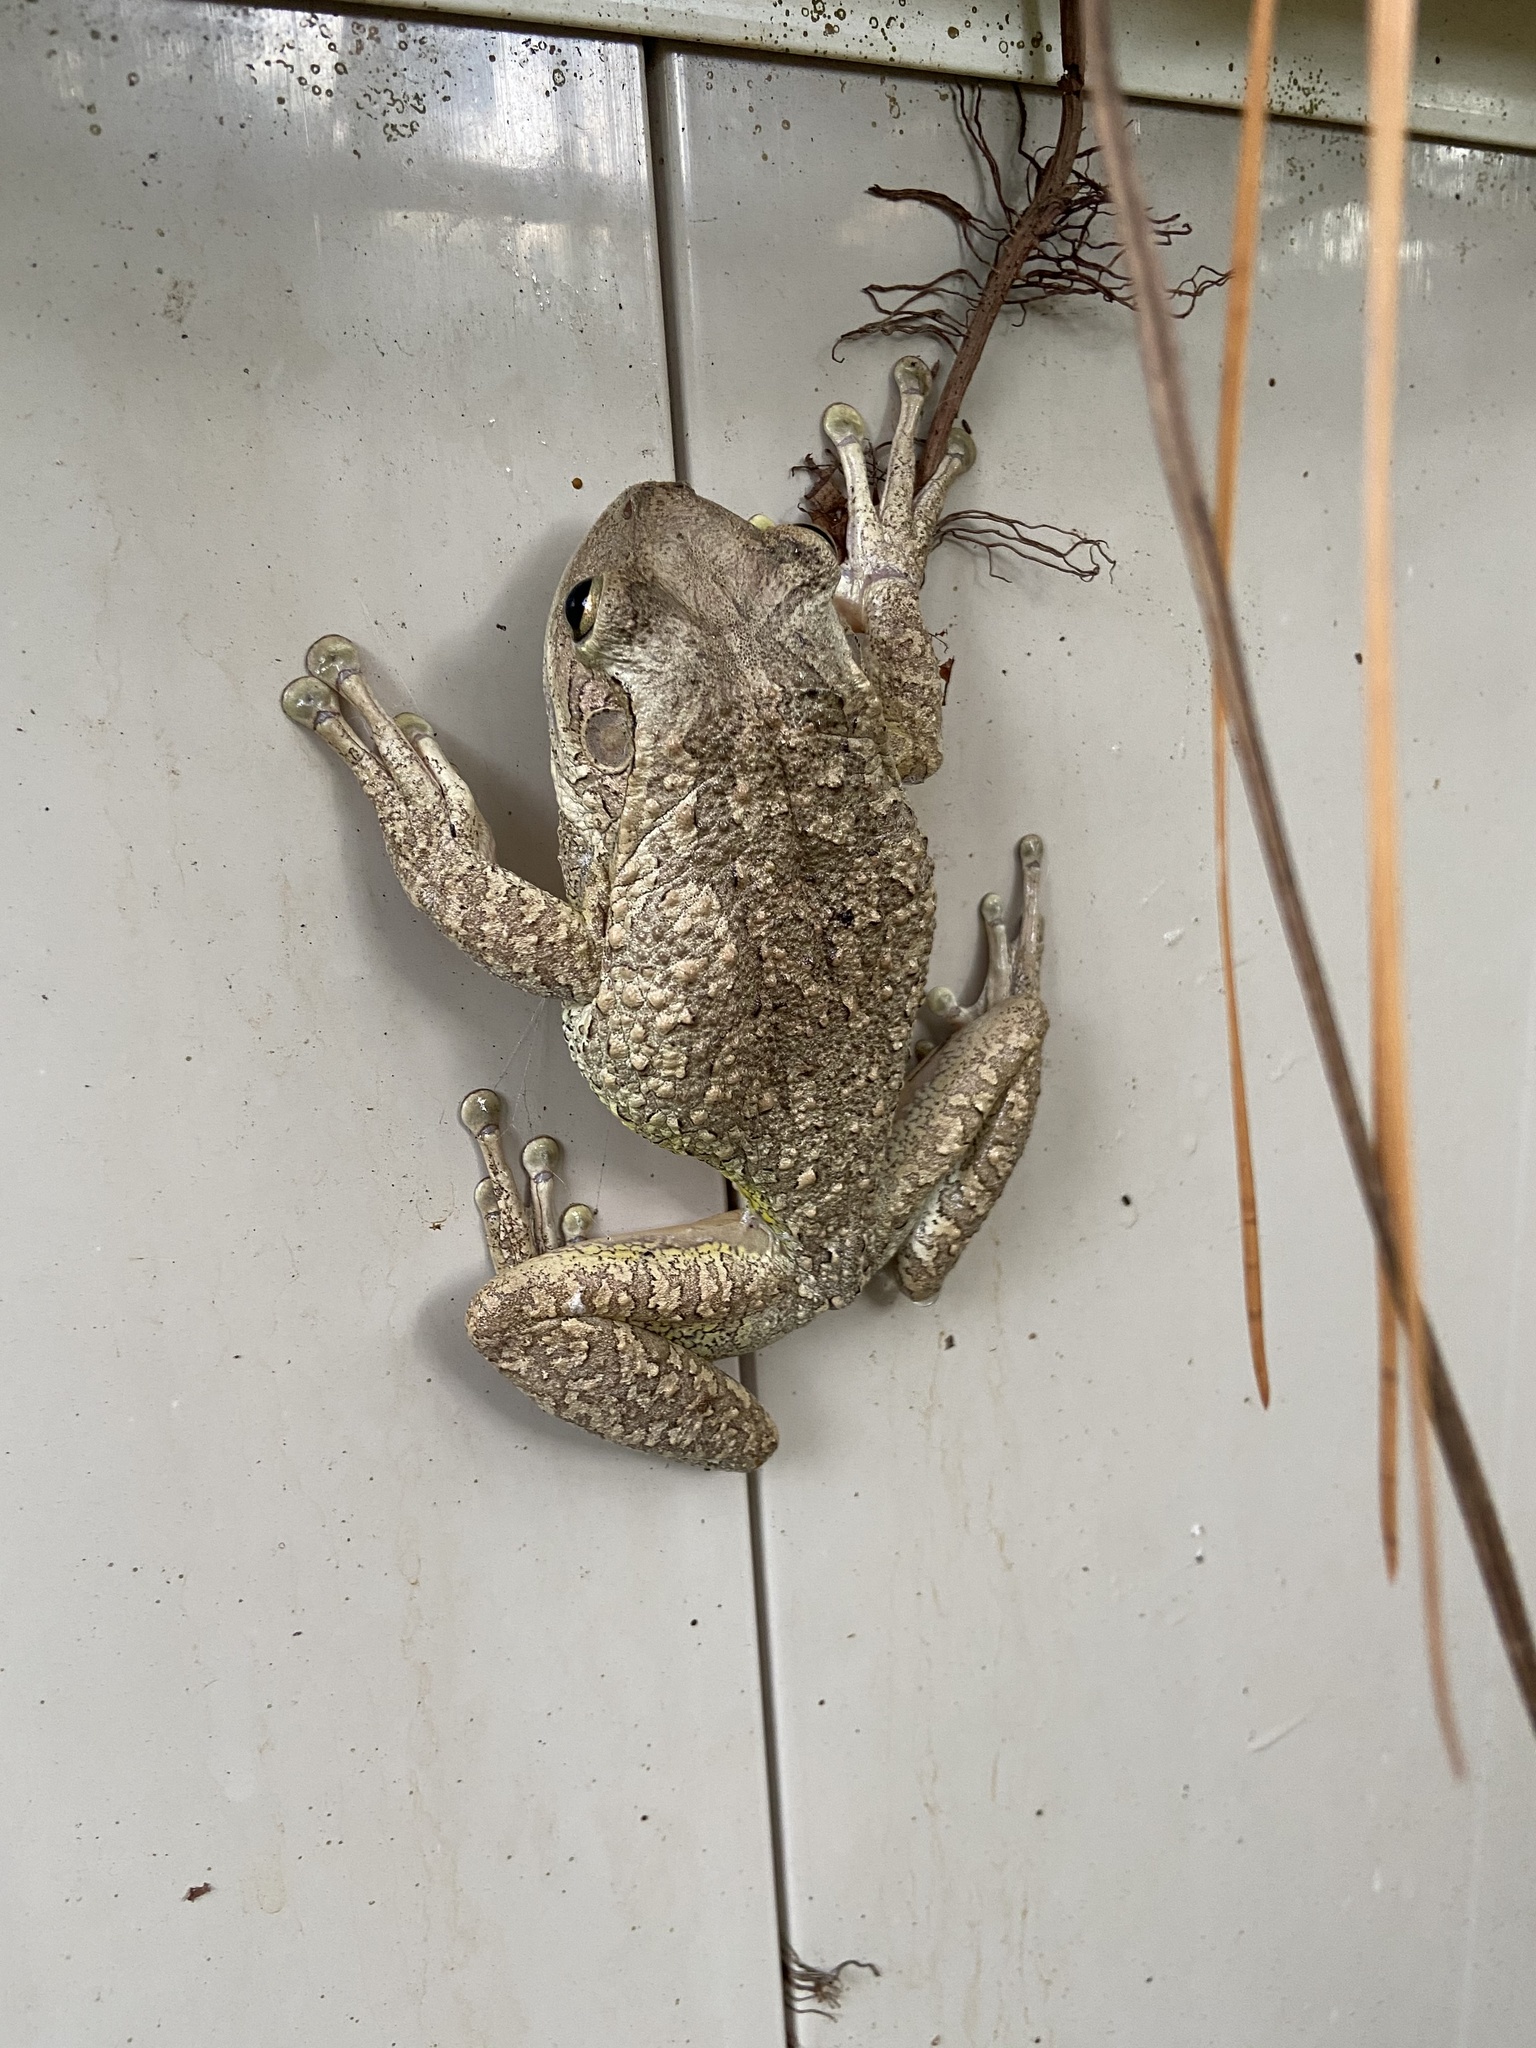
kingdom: Animalia
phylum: Chordata
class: Amphibia
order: Anura
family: Hylidae
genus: Osteopilus
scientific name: Osteopilus septentrionalis
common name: Cuban treefrog
